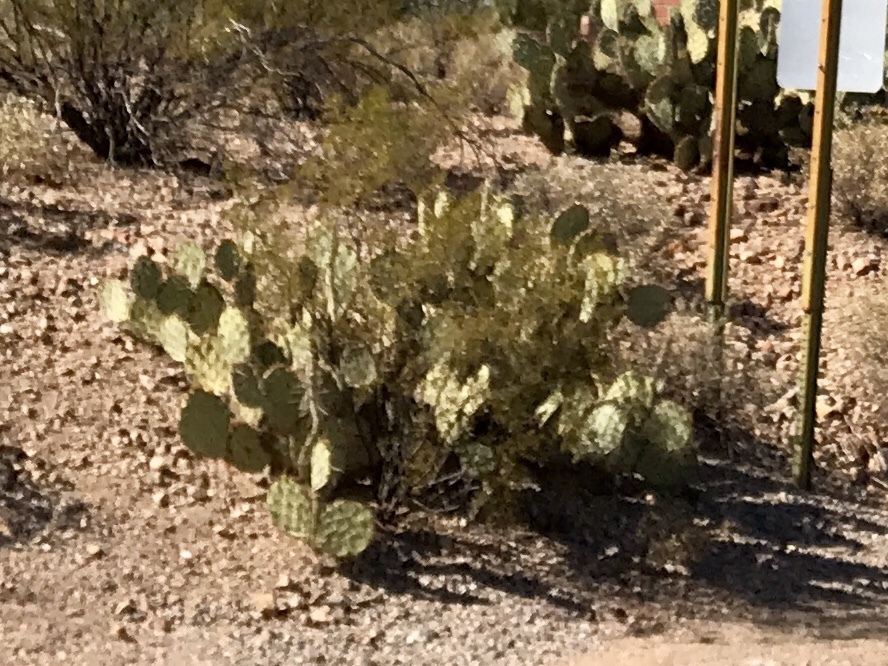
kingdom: Plantae
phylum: Tracheophyta
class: Magnoliopsida
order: Caryophyllales
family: Cactaceae
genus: Opuntia
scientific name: Opuntia engelmannii
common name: Cactus-apple
